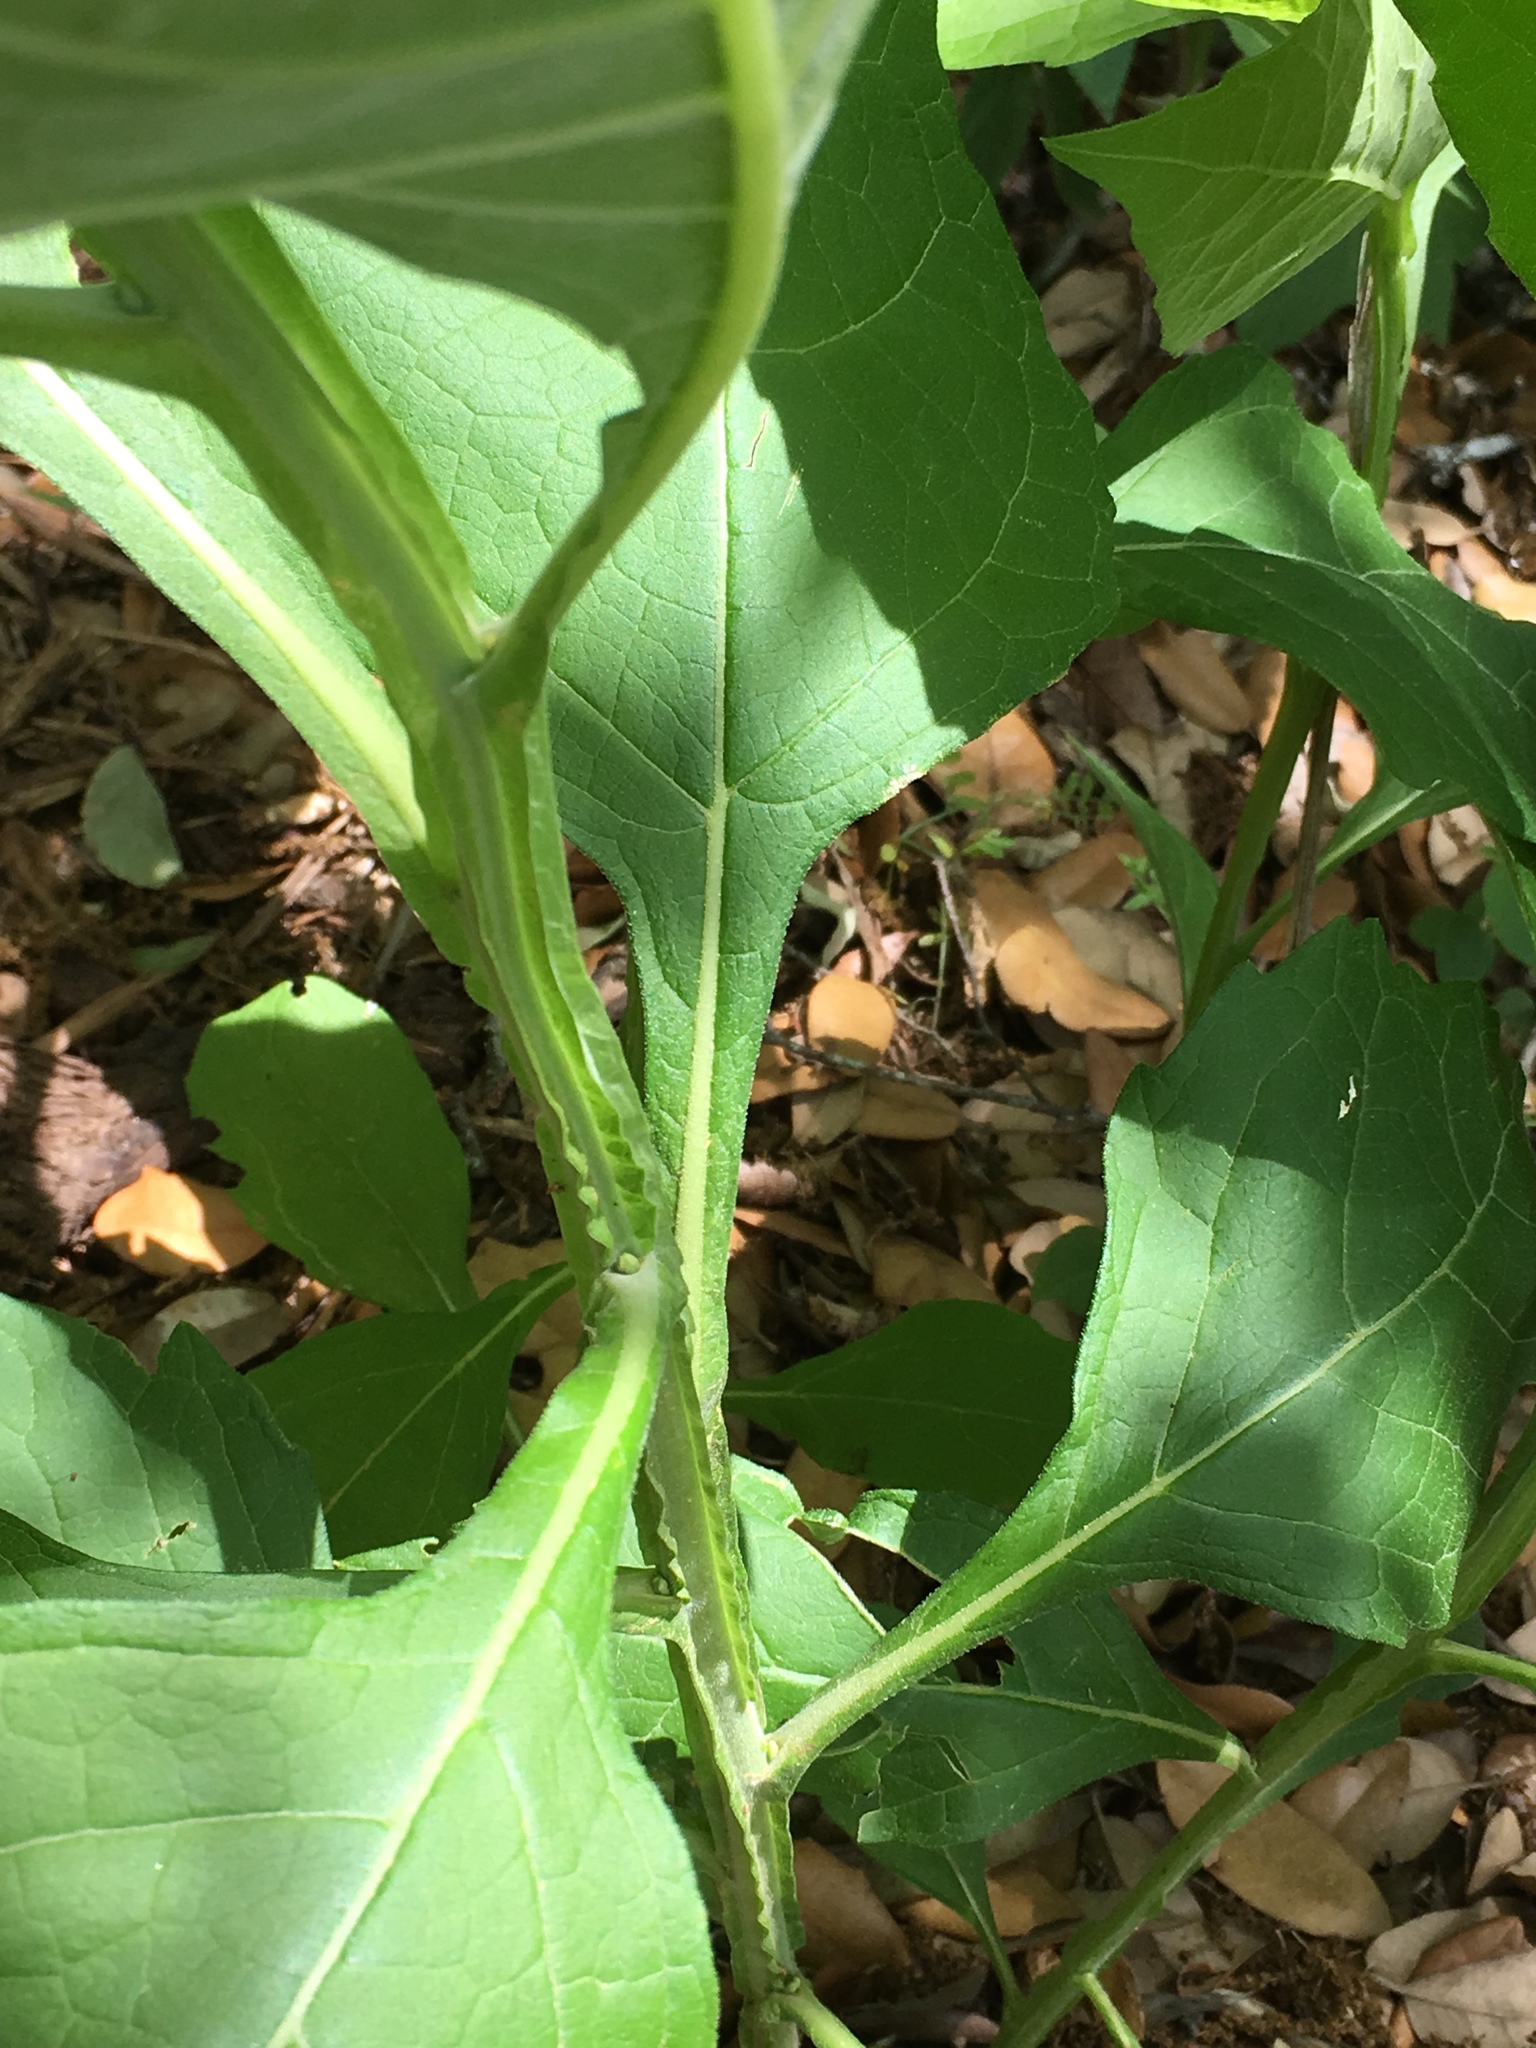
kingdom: Plantae
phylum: Tracheophyta
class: Magnoliopsida
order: Asterales
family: Asteraceae
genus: Verbesina
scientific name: Verbesina virginica
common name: Frostweed
